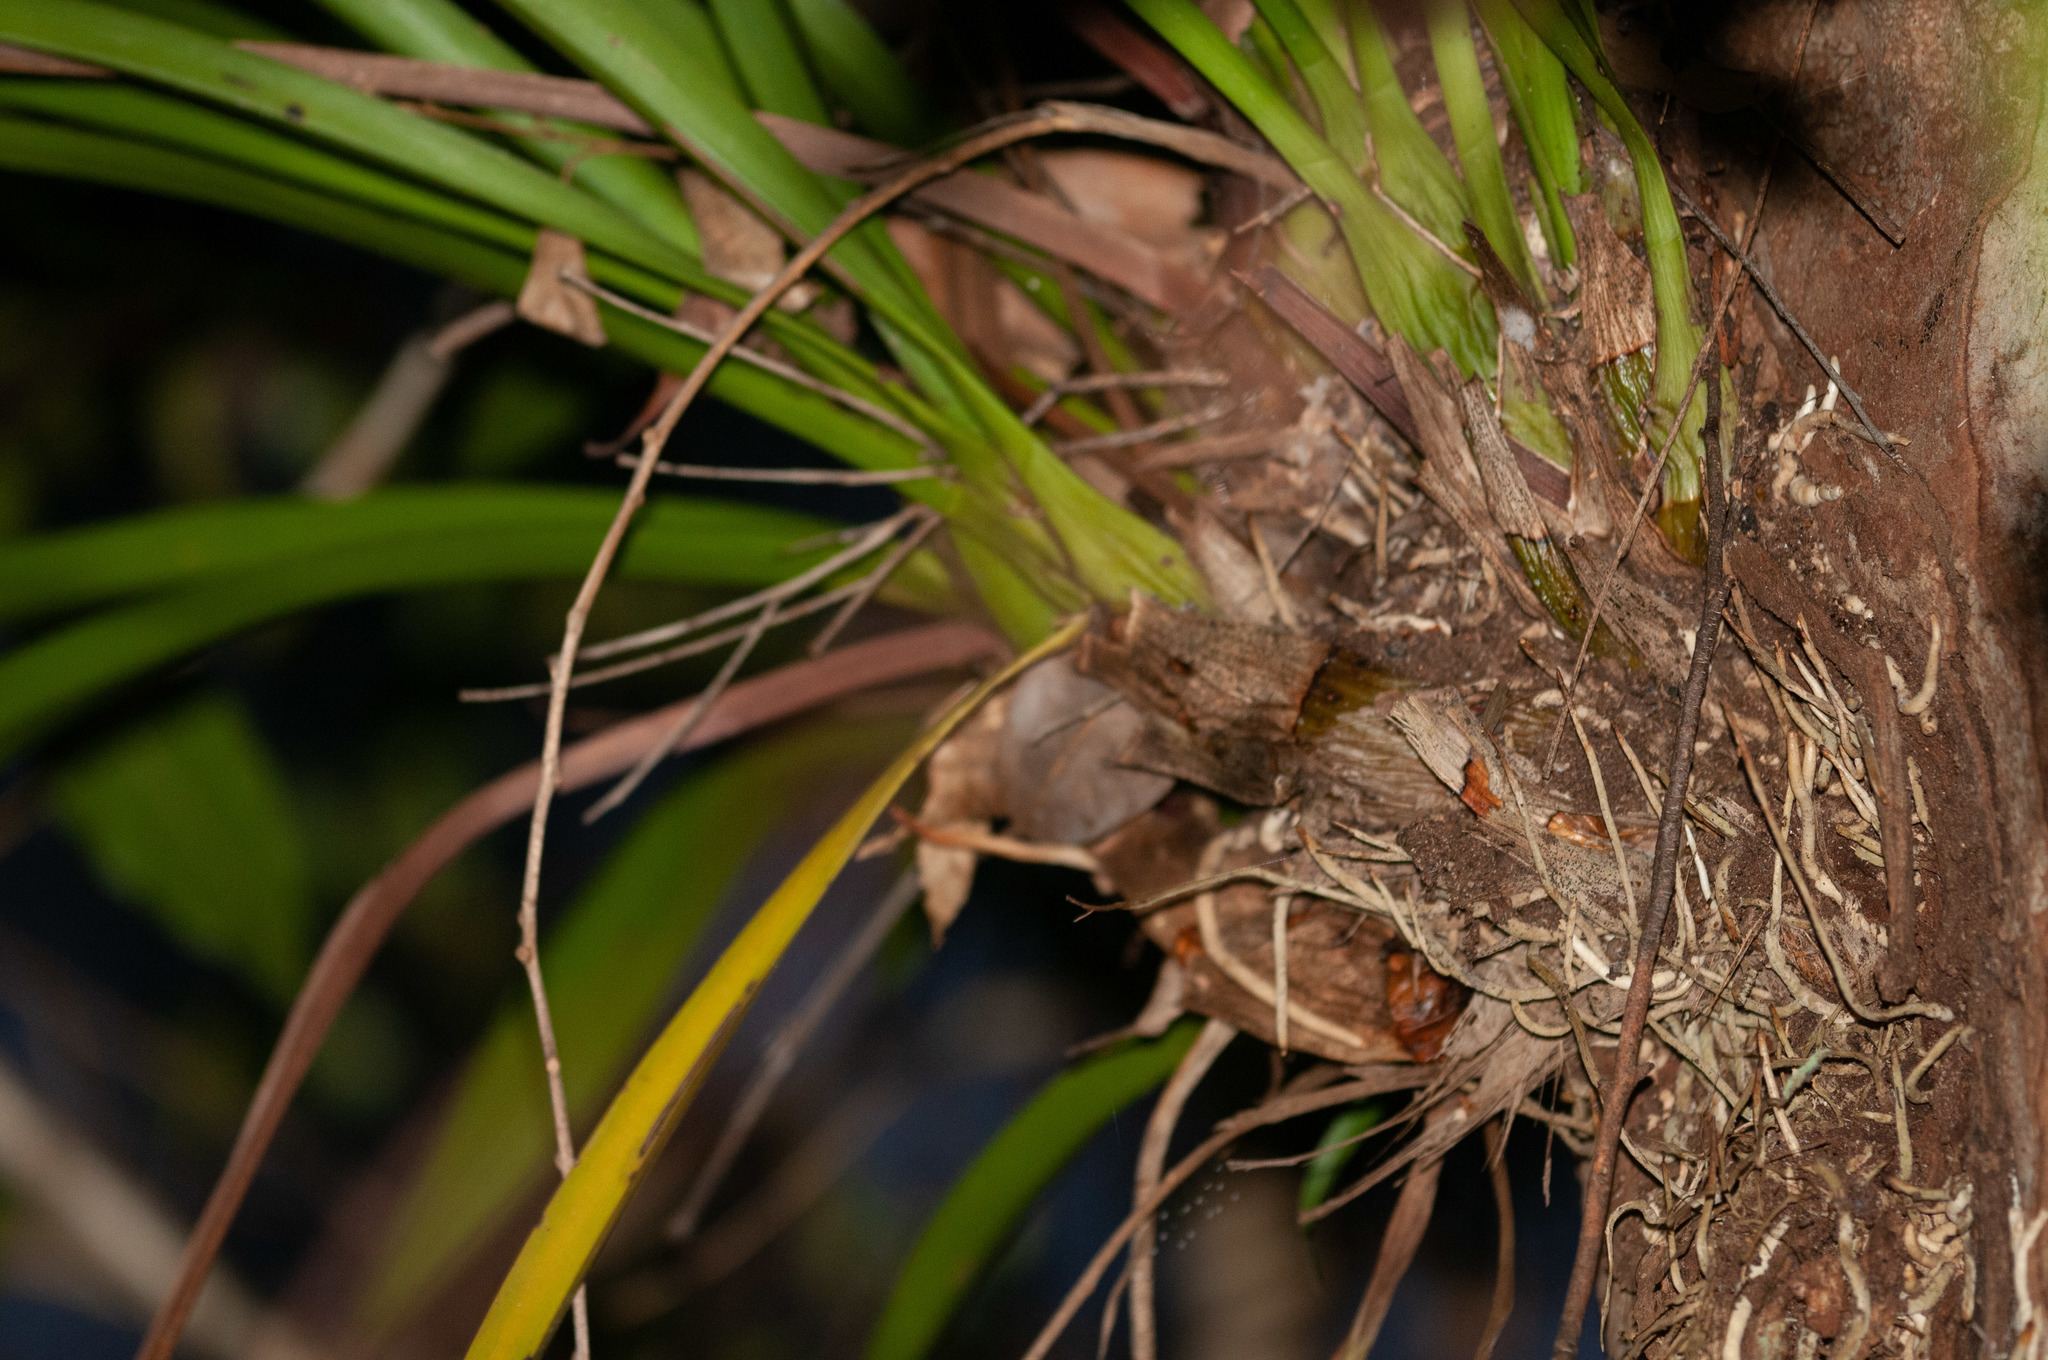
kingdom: Plantae
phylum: Tracheophyta
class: Liliopsida
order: Asparagales
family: Orchidaceae
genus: Cymbidium
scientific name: Cymbidium madidum
